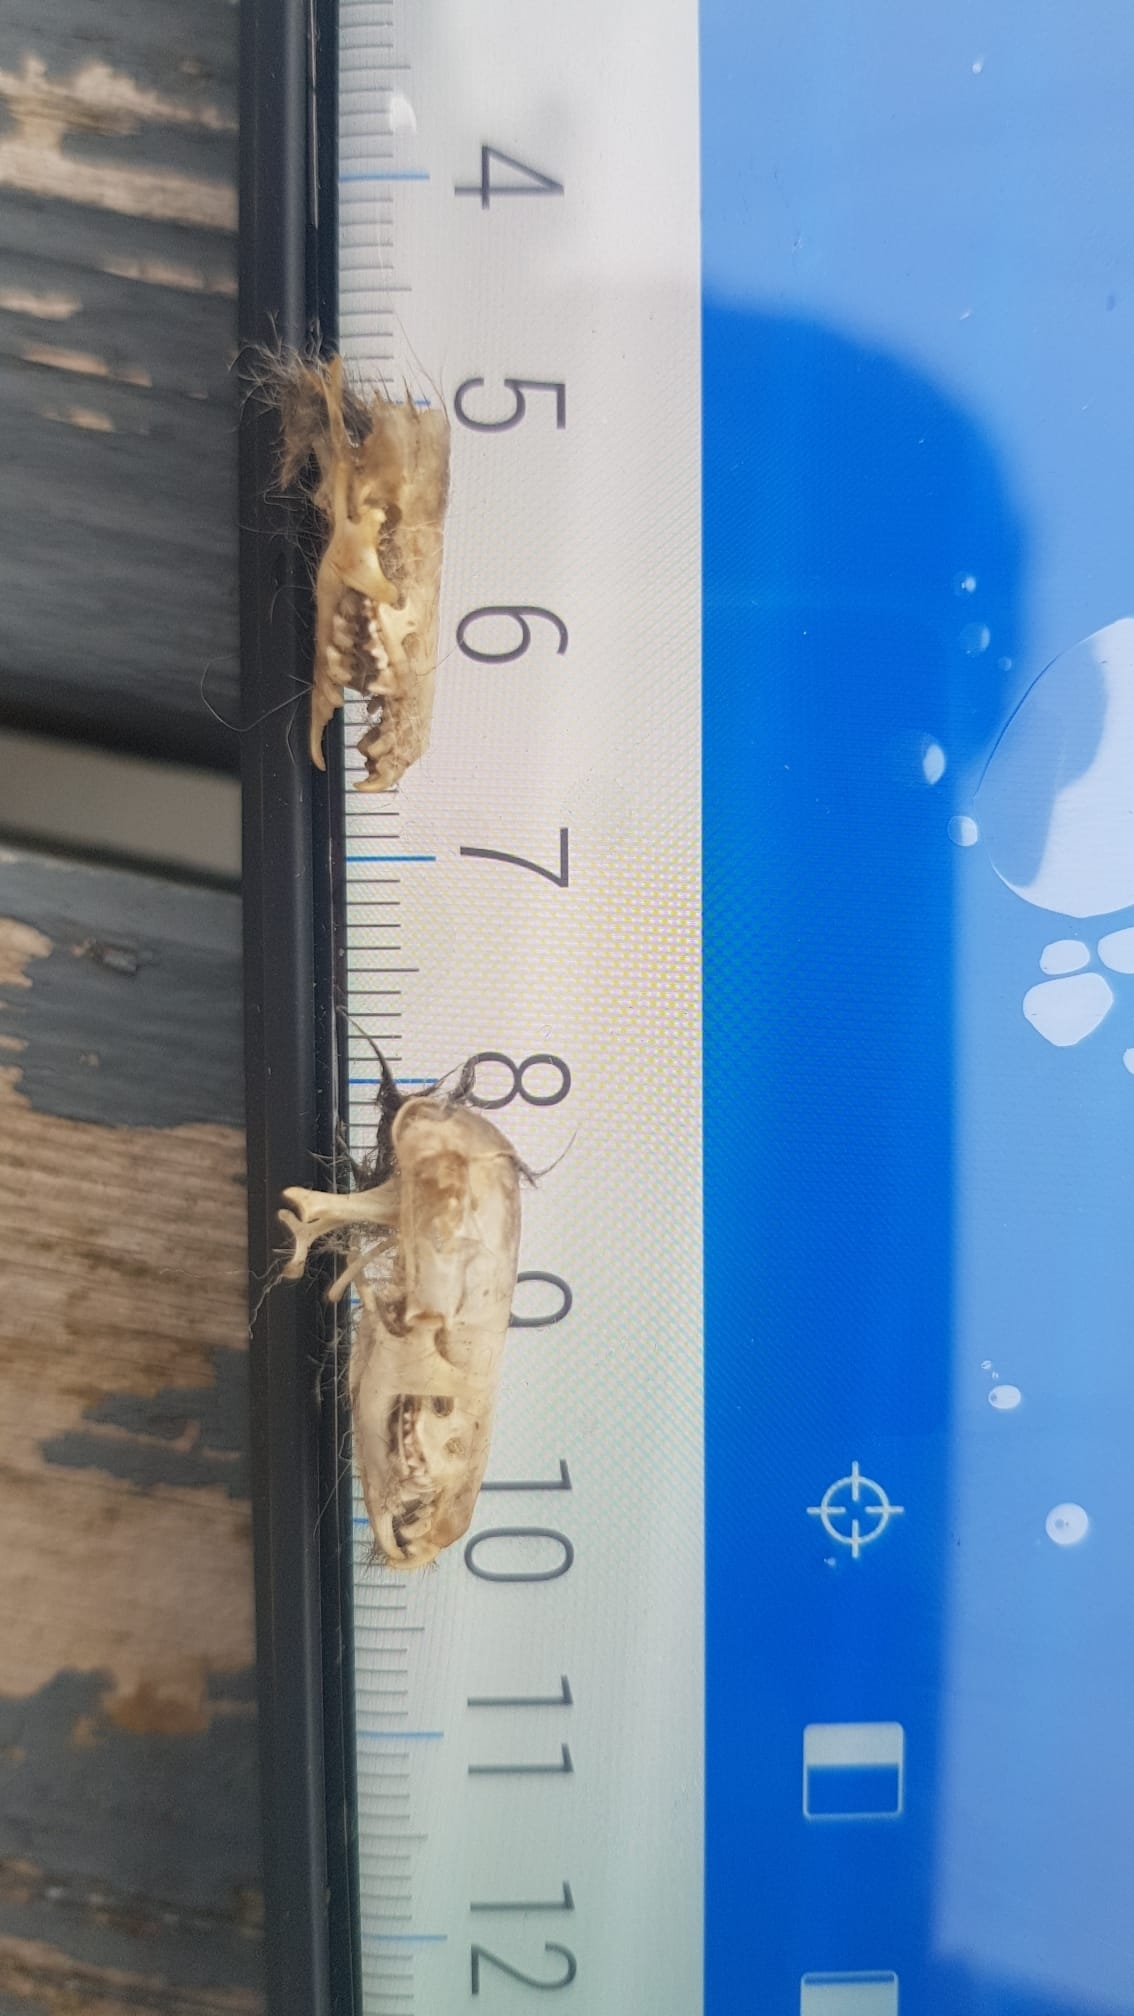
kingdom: Animalia
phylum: Chordata
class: Mammalia
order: Soricomorpha
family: Soricidae
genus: Crocidura
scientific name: Crocidura russula
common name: Greater white-toothed shrew
